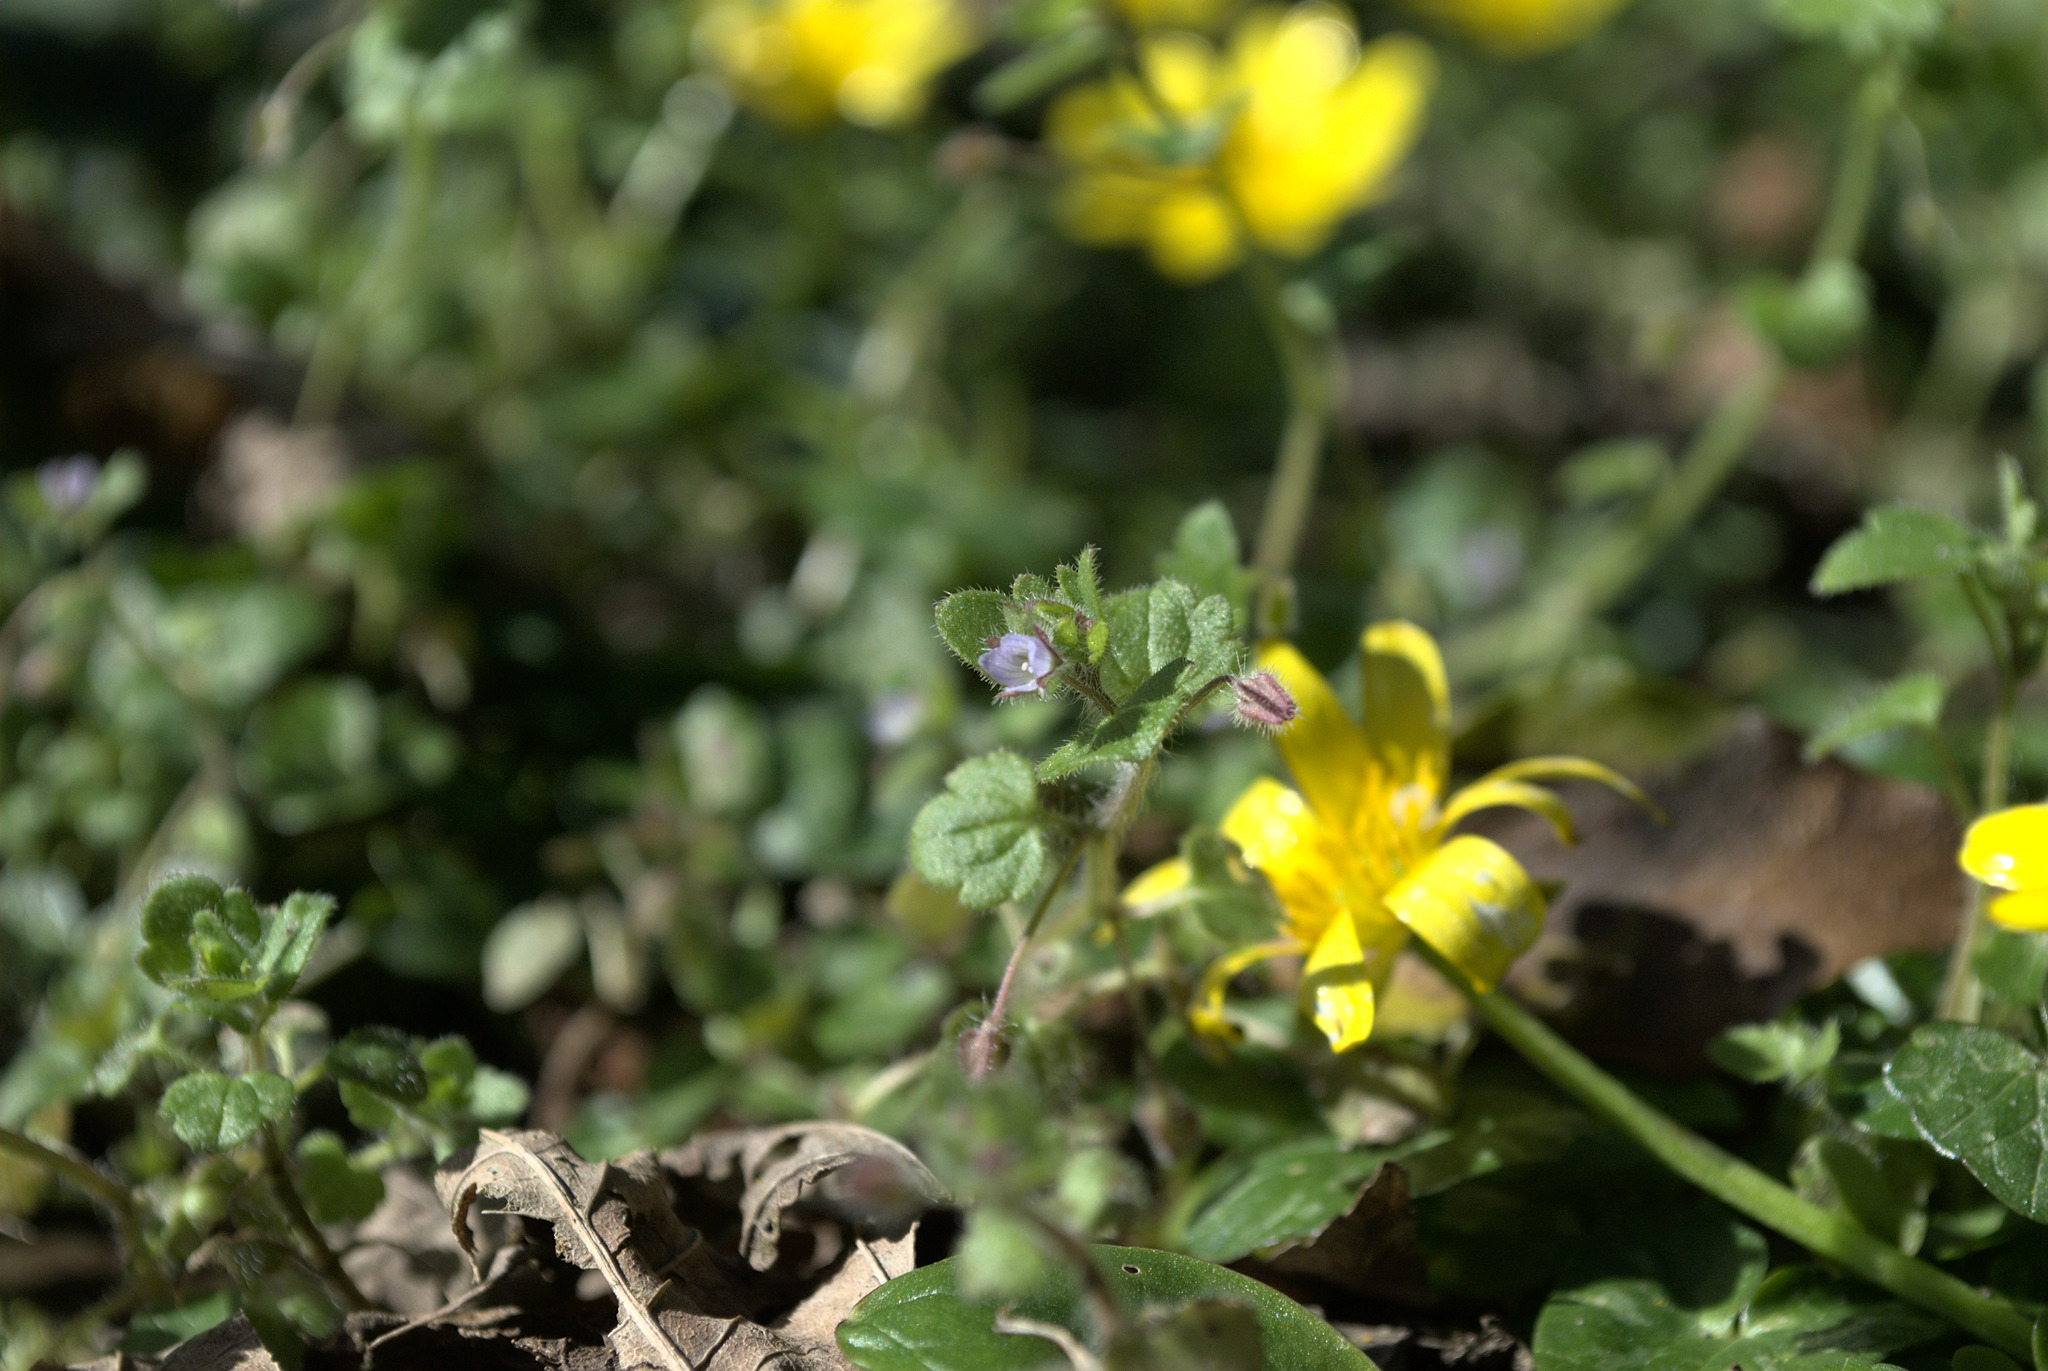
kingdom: Plantae
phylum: Tracheophyta
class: Magnoliopsida
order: Lamiales
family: Plantaginaceae
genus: Veronica
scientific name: Veronica hederifolia
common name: Ivy-leaved speedwell
